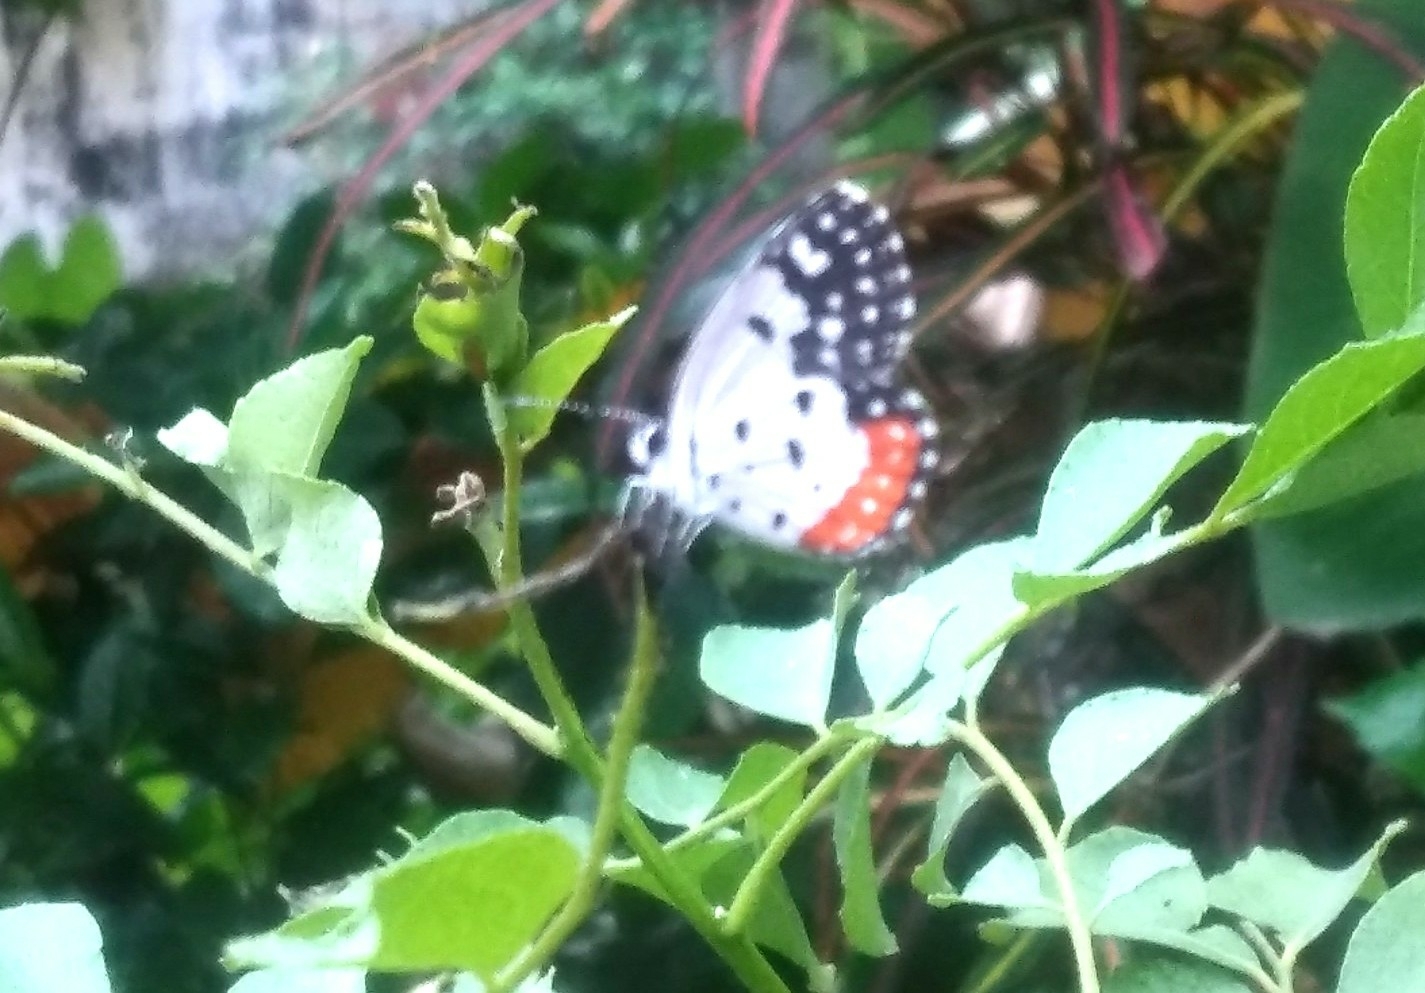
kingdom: Animalia
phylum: Arthropoda
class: Insecta
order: Lepidoptera
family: Lycaenidae
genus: Talicada
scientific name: Talicada nyseus
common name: Red pierrot
